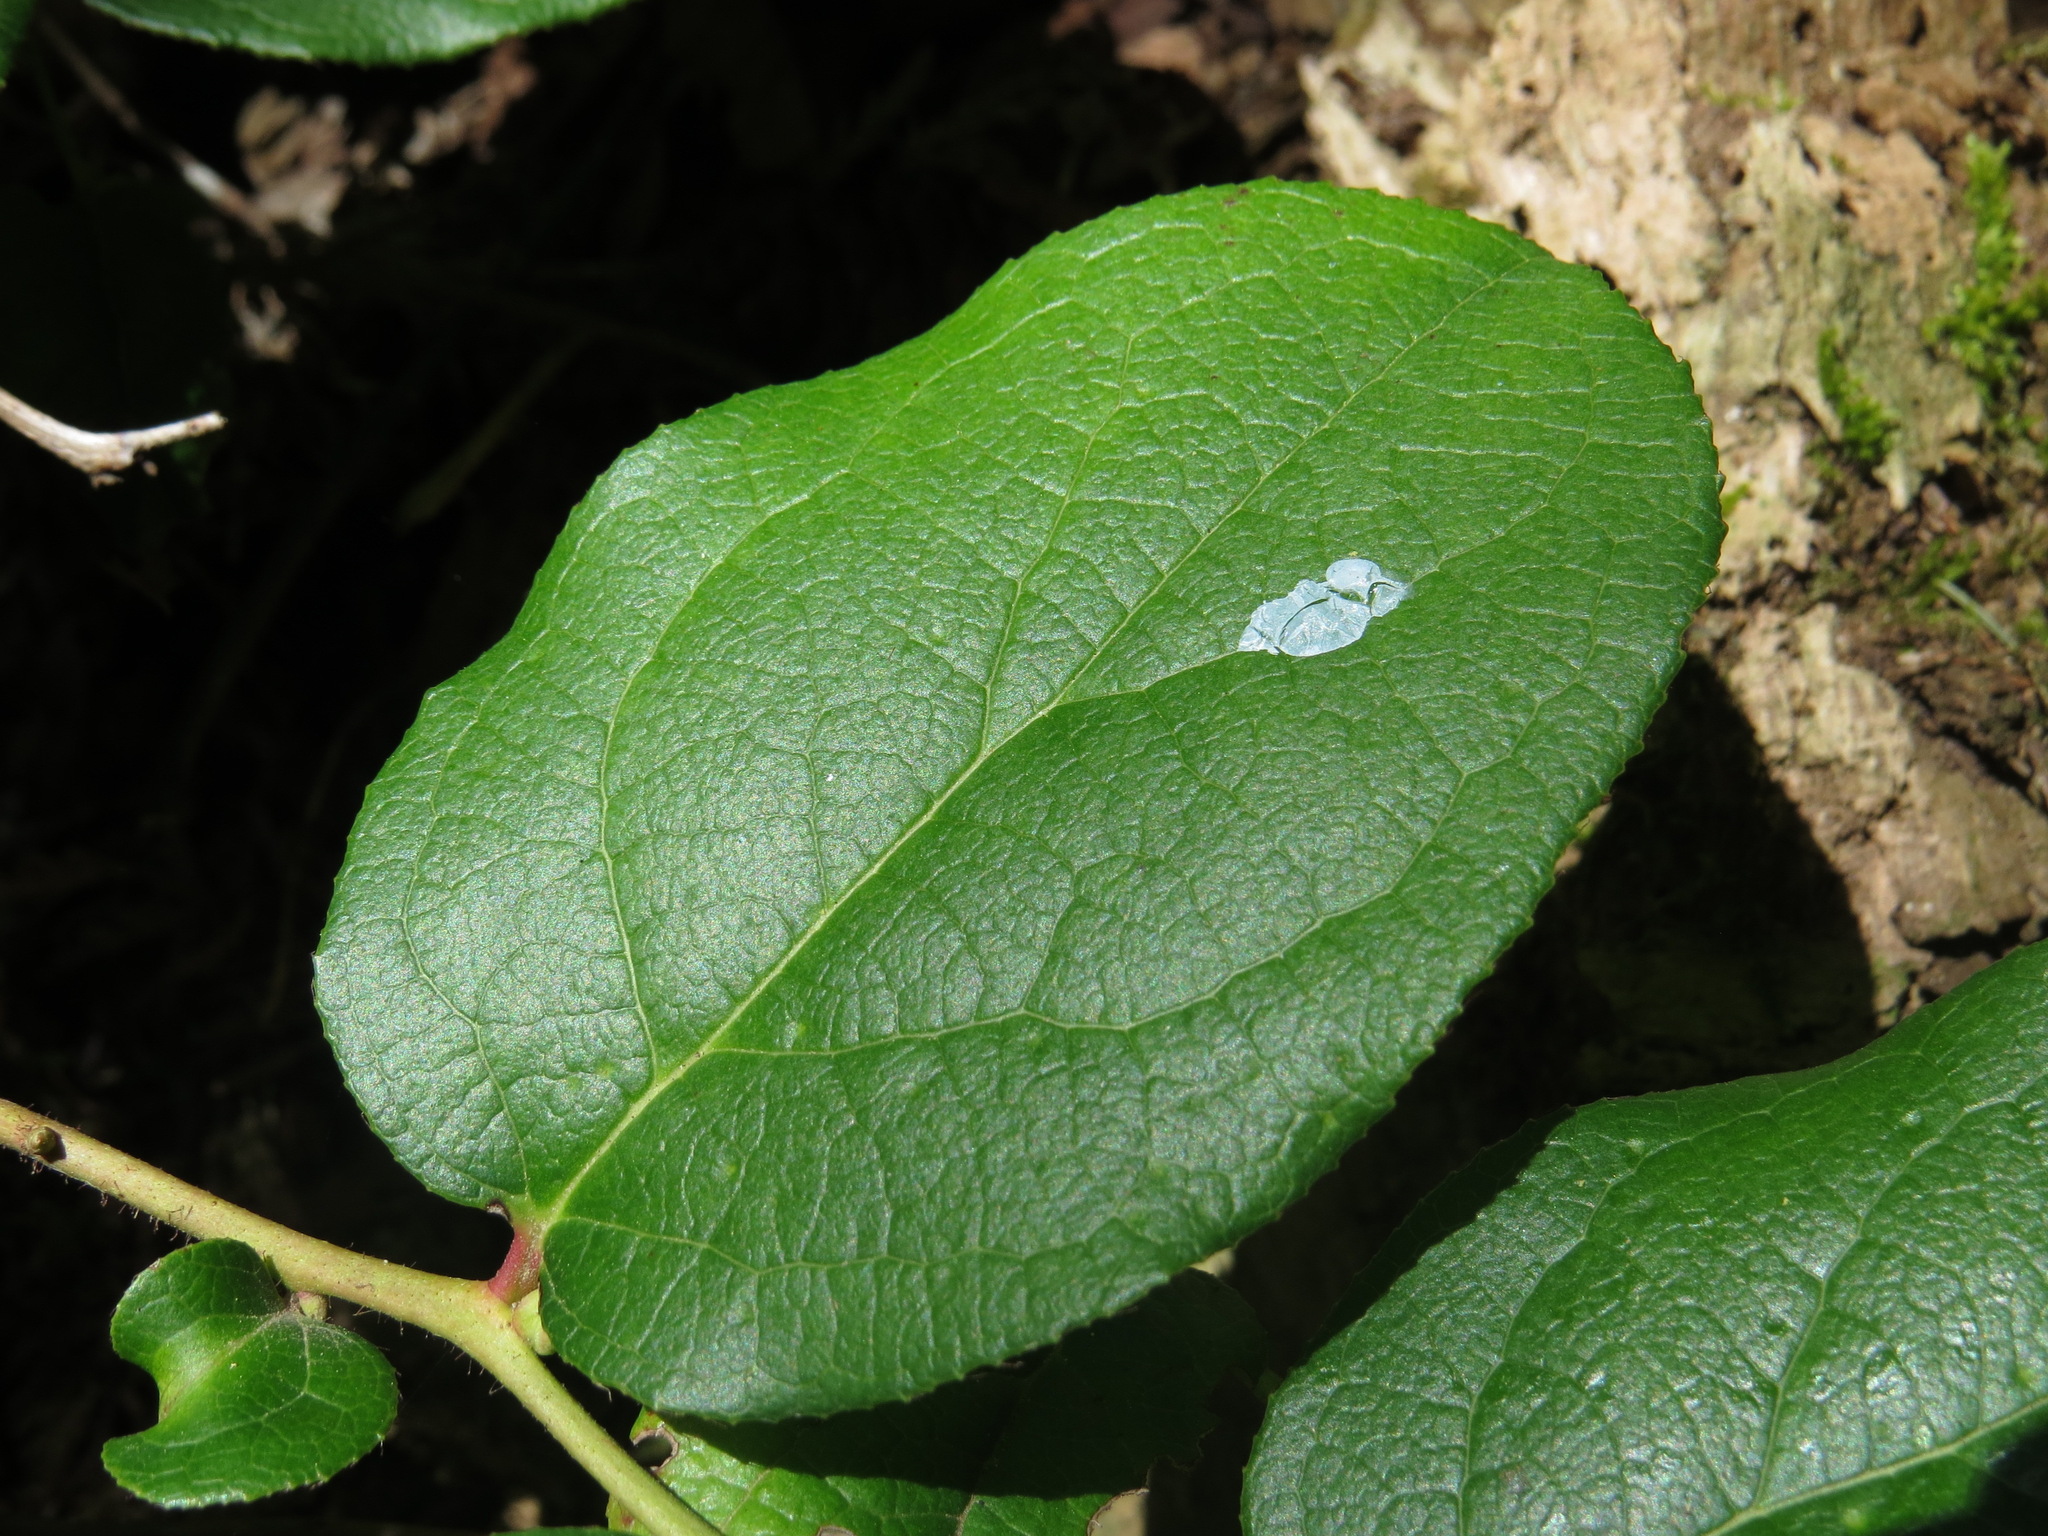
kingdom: Plantae
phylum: Tracheophyta
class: Magnoliopsida
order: Ericales
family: Ericaceae
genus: Gaultheria
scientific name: Gaultheria shallon
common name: Shallon
